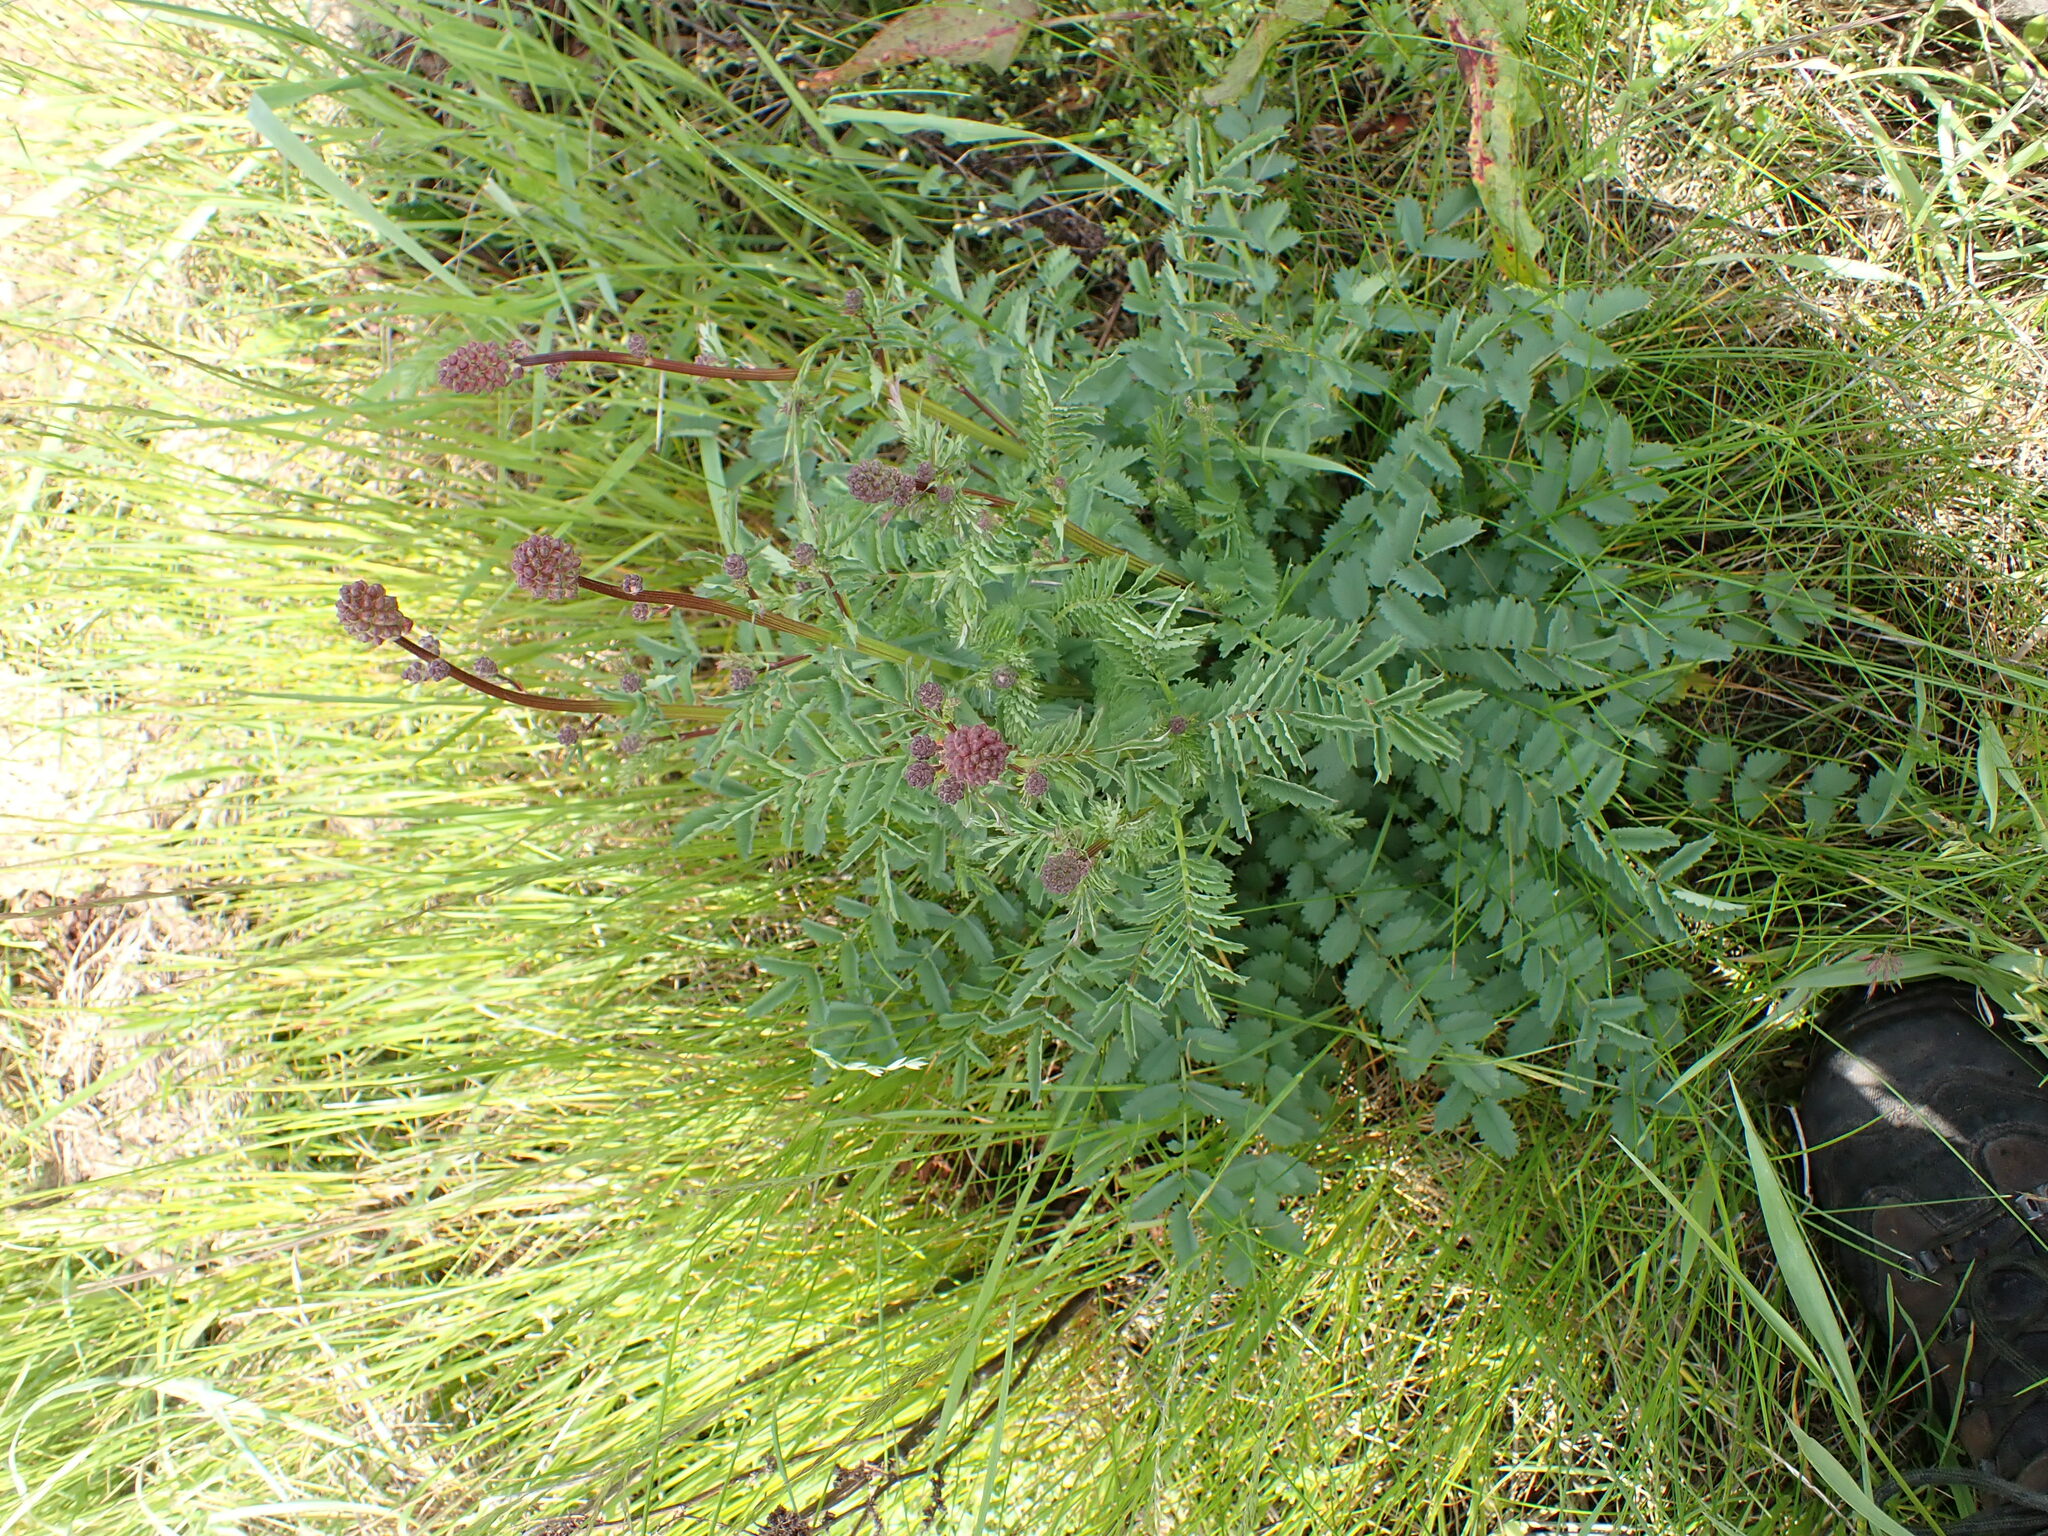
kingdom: Plantae
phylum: Tracheophyta
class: Magnoliopsida
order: Rosales
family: Rosaceae
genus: Poterium
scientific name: Poterium sanguisorba
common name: Salad burnet
